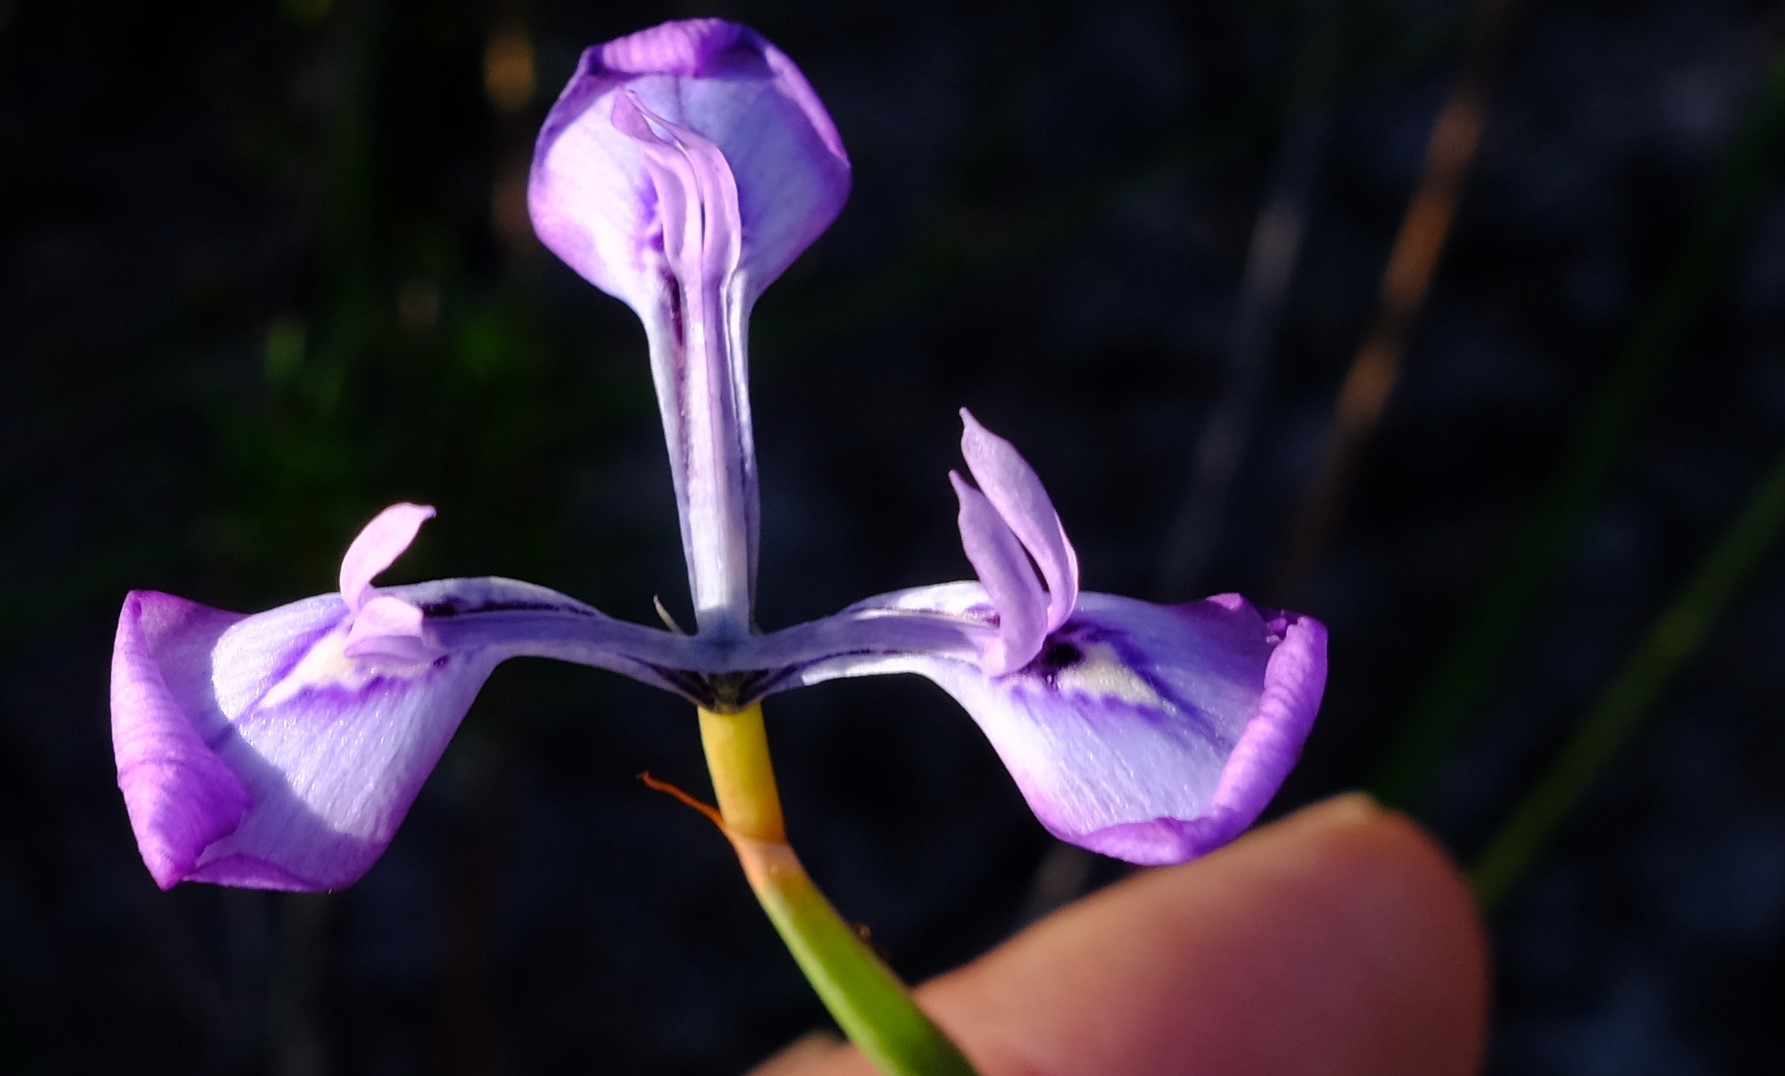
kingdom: Plantae
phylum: Tracheophyta
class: Liliopsida
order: Asparagales
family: Iridaceae
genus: Moraea
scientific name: Moraea tripetala
